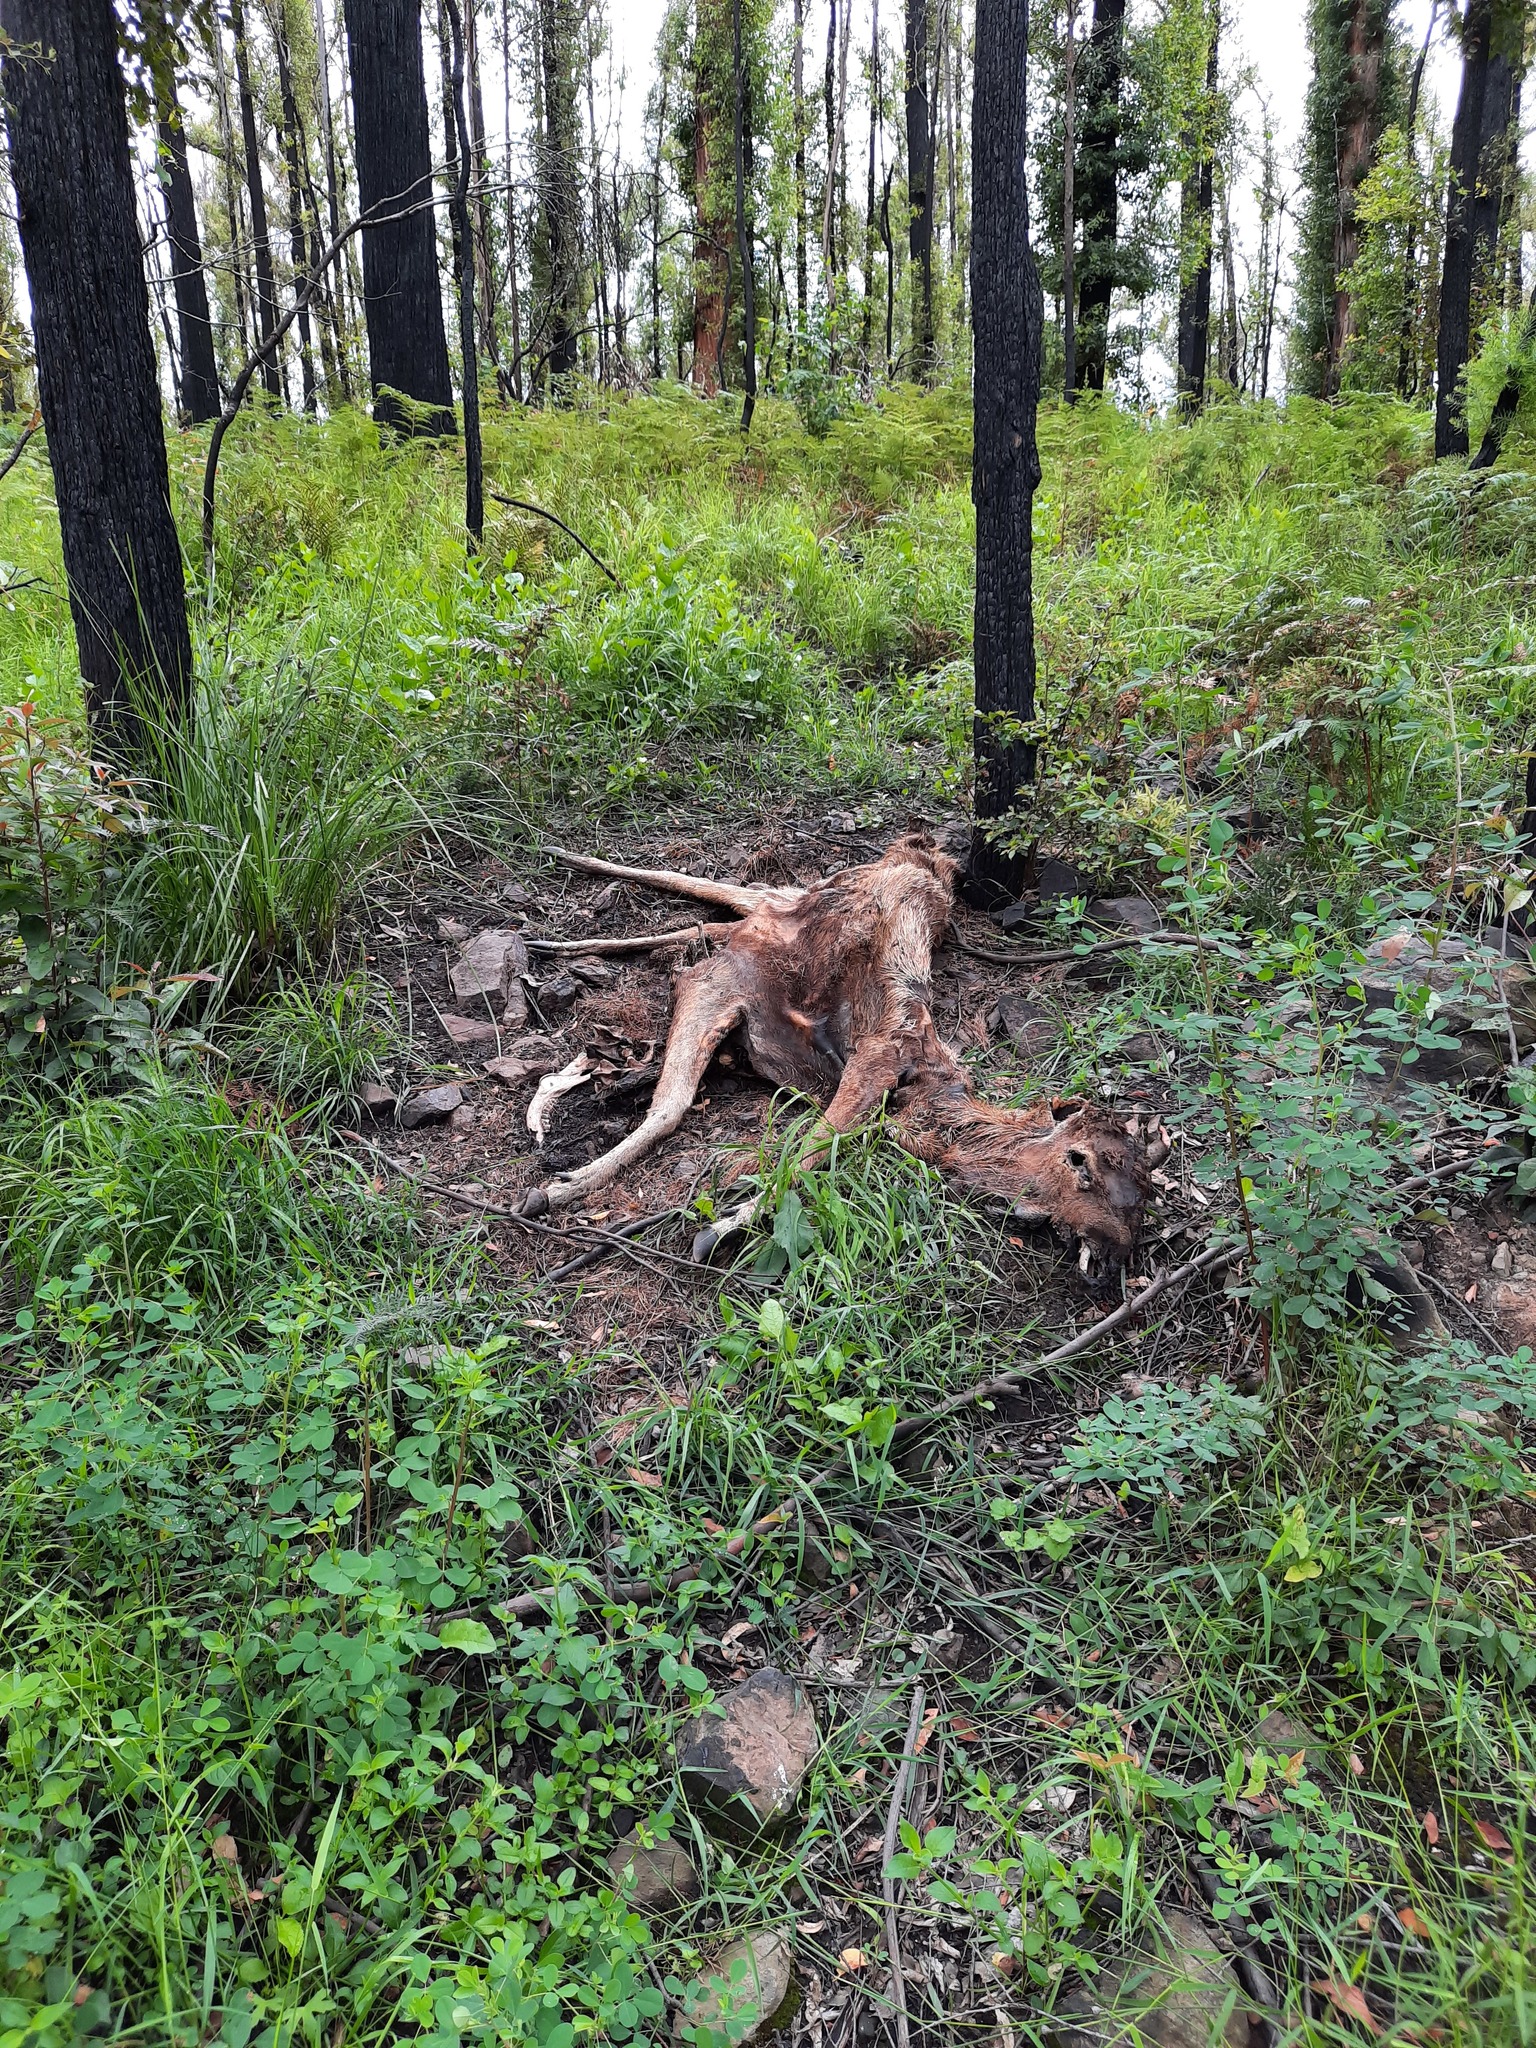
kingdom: Animalia
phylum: Chordata
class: Mammalia
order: Artiodactyla
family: Cervidae
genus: Rusa
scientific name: Rusa unicolor
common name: Sambar
